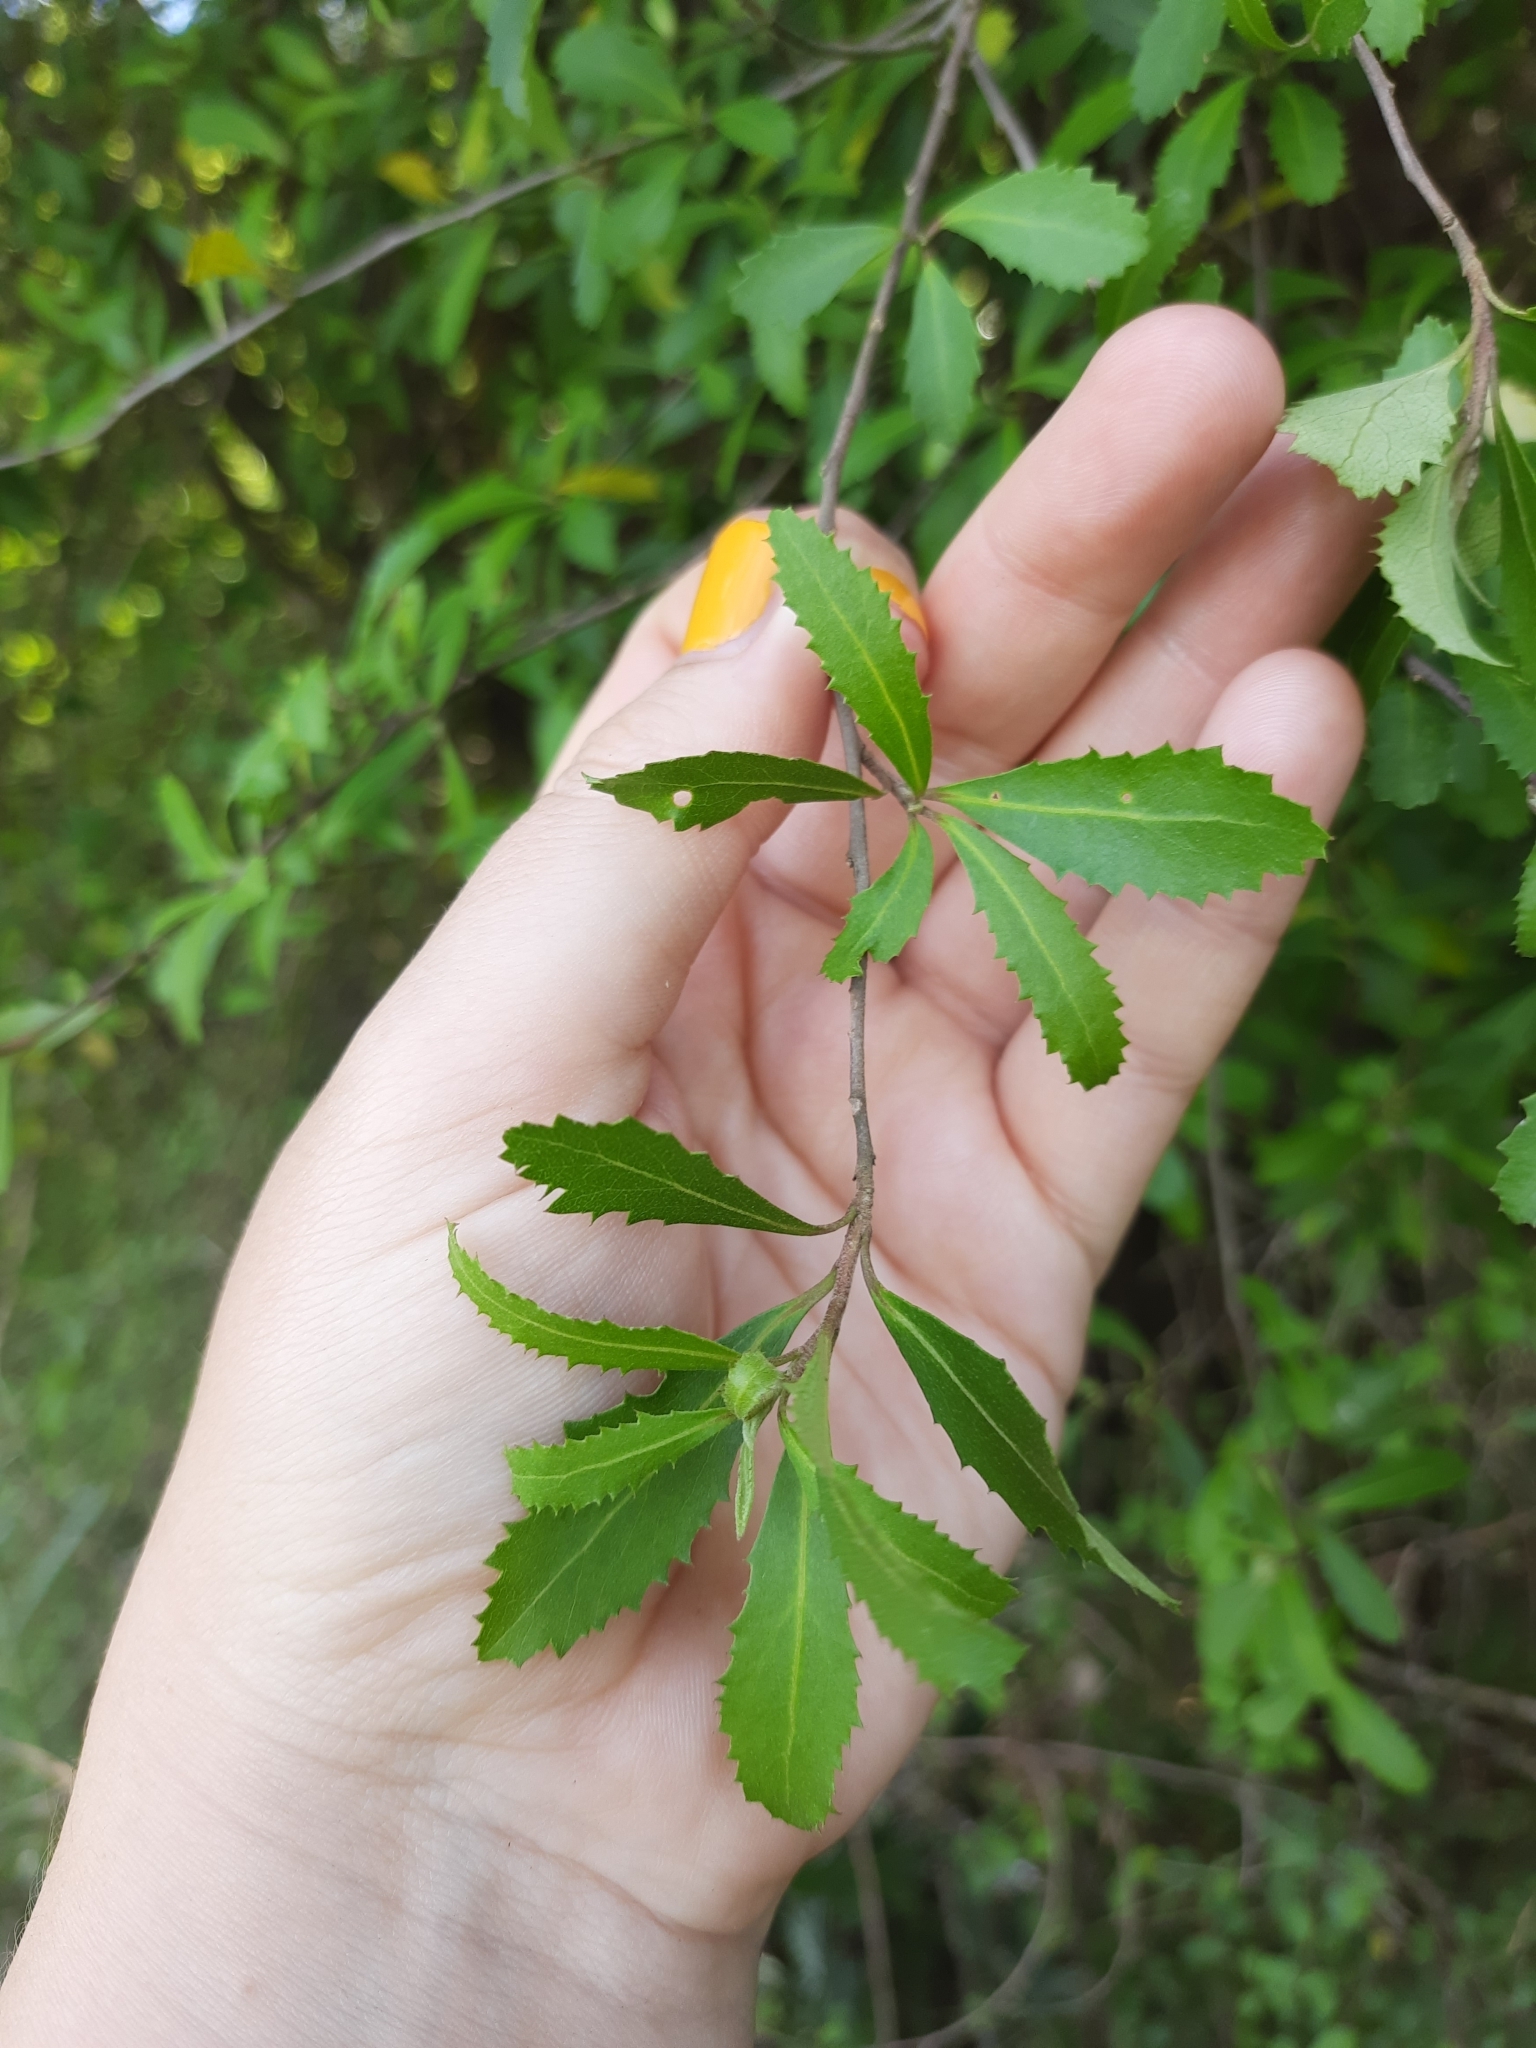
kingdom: Plantae
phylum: Tracheophyta
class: Magnoliopsida
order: Malvales
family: Malvaceae
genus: Hoheria
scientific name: Hoheria angustifolia
